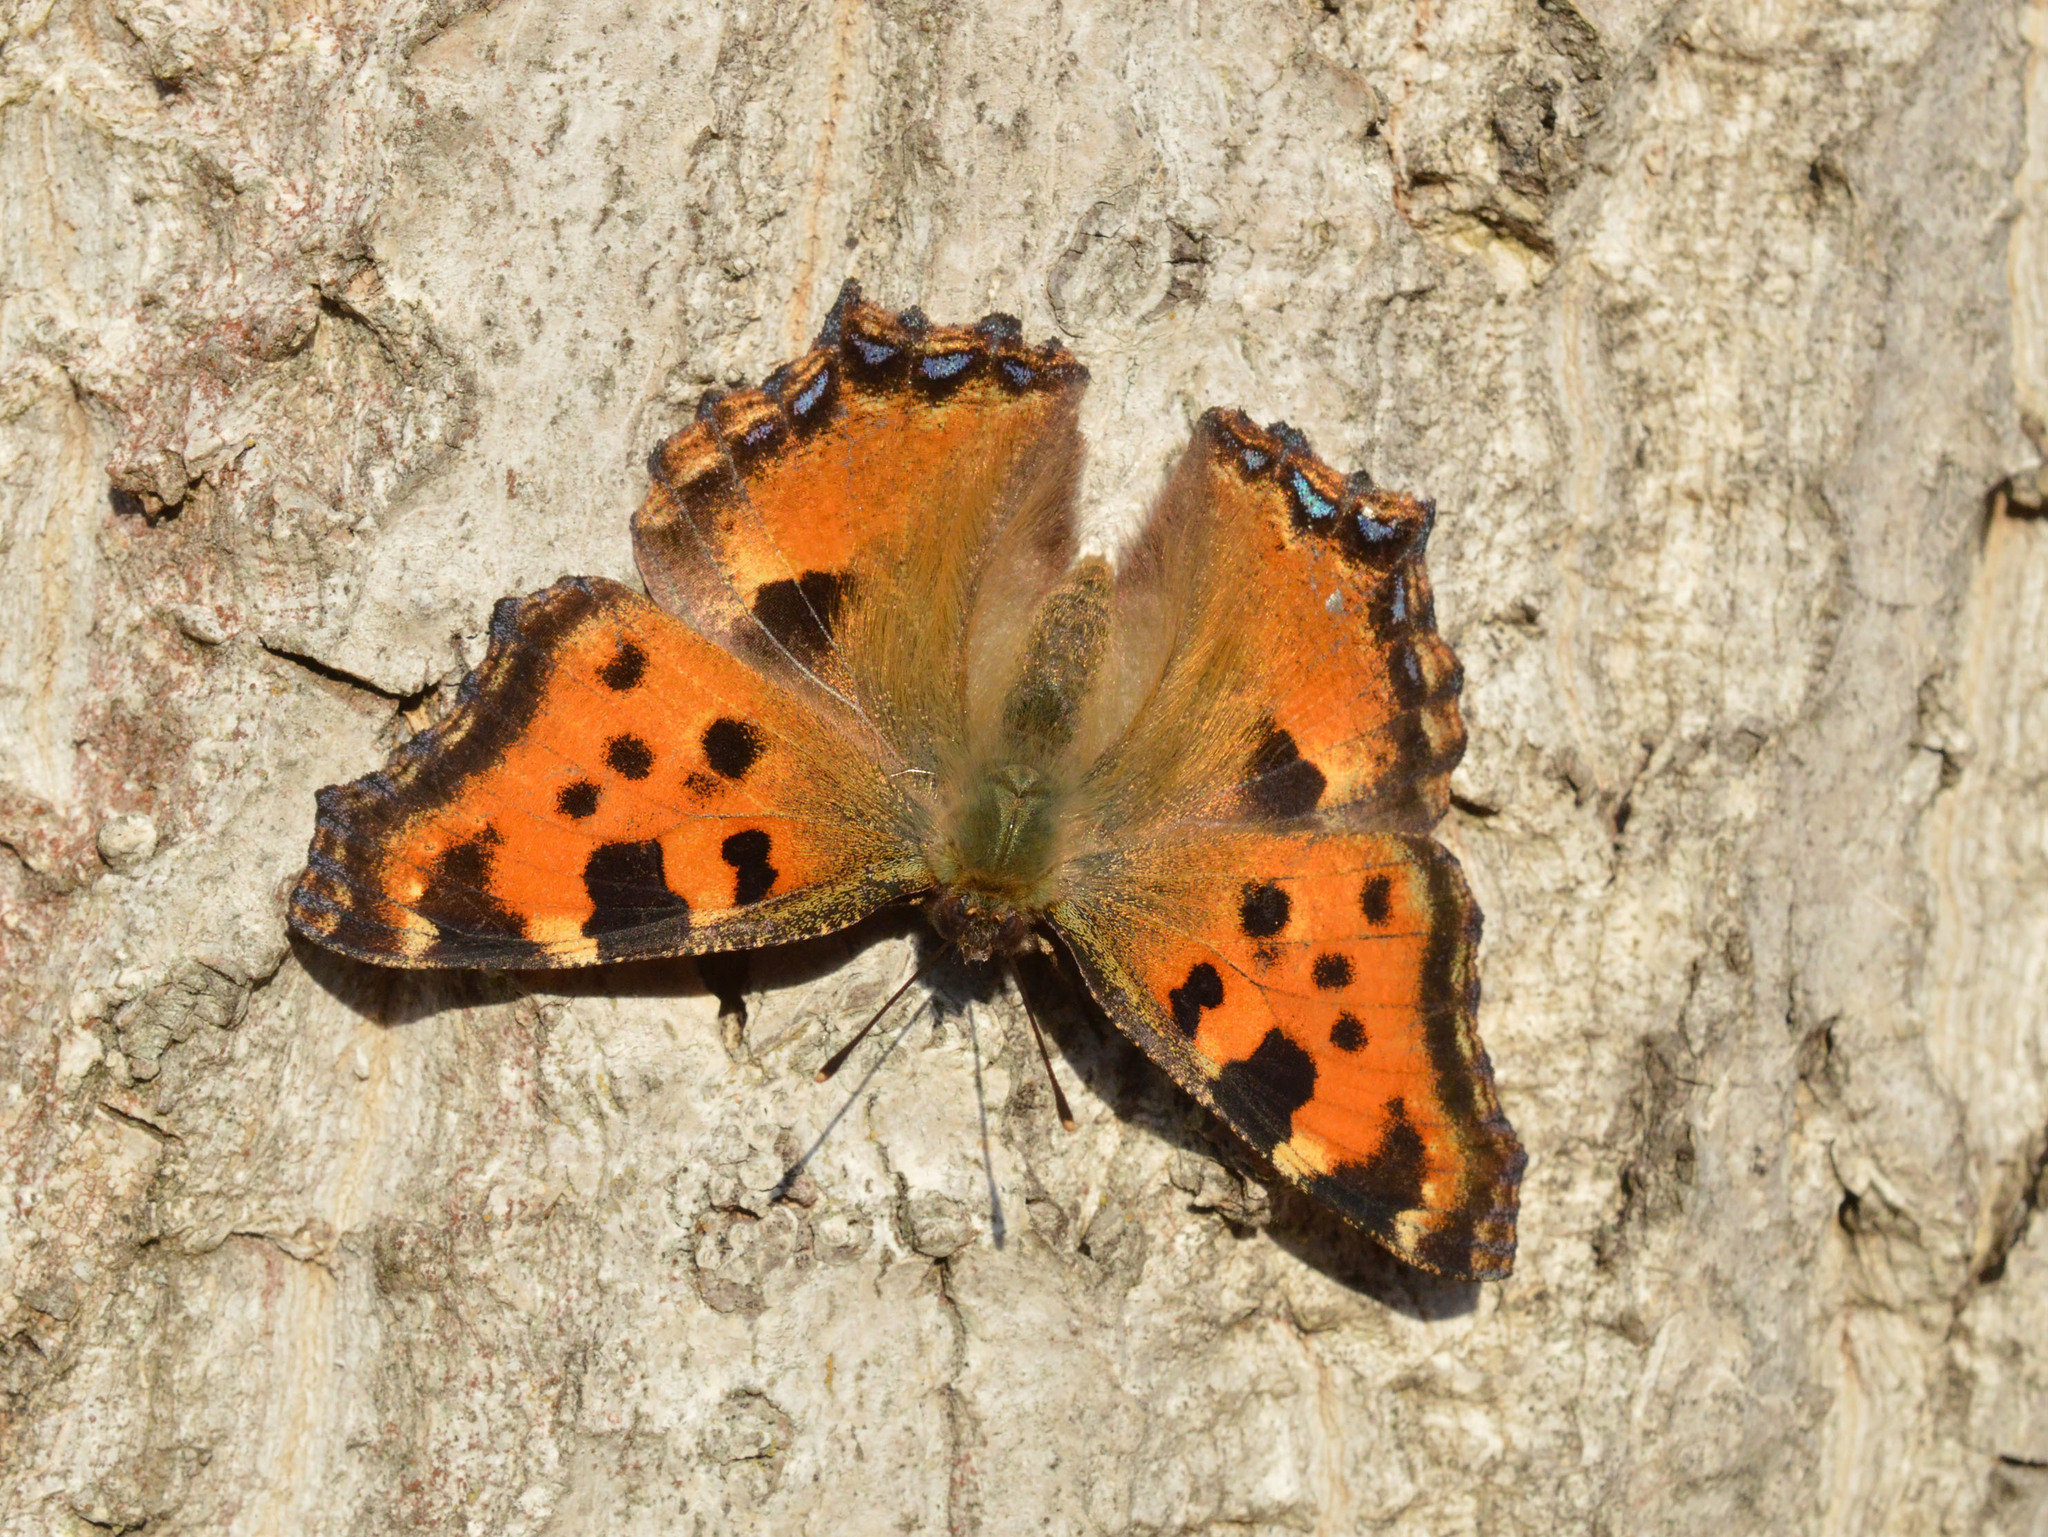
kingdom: Animalia
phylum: Arthropoda
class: Insecta
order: Lepidoptera
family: Nymphalidae
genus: Nymphalis
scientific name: Nymphalis polychloros
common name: Large tortoiseshell
